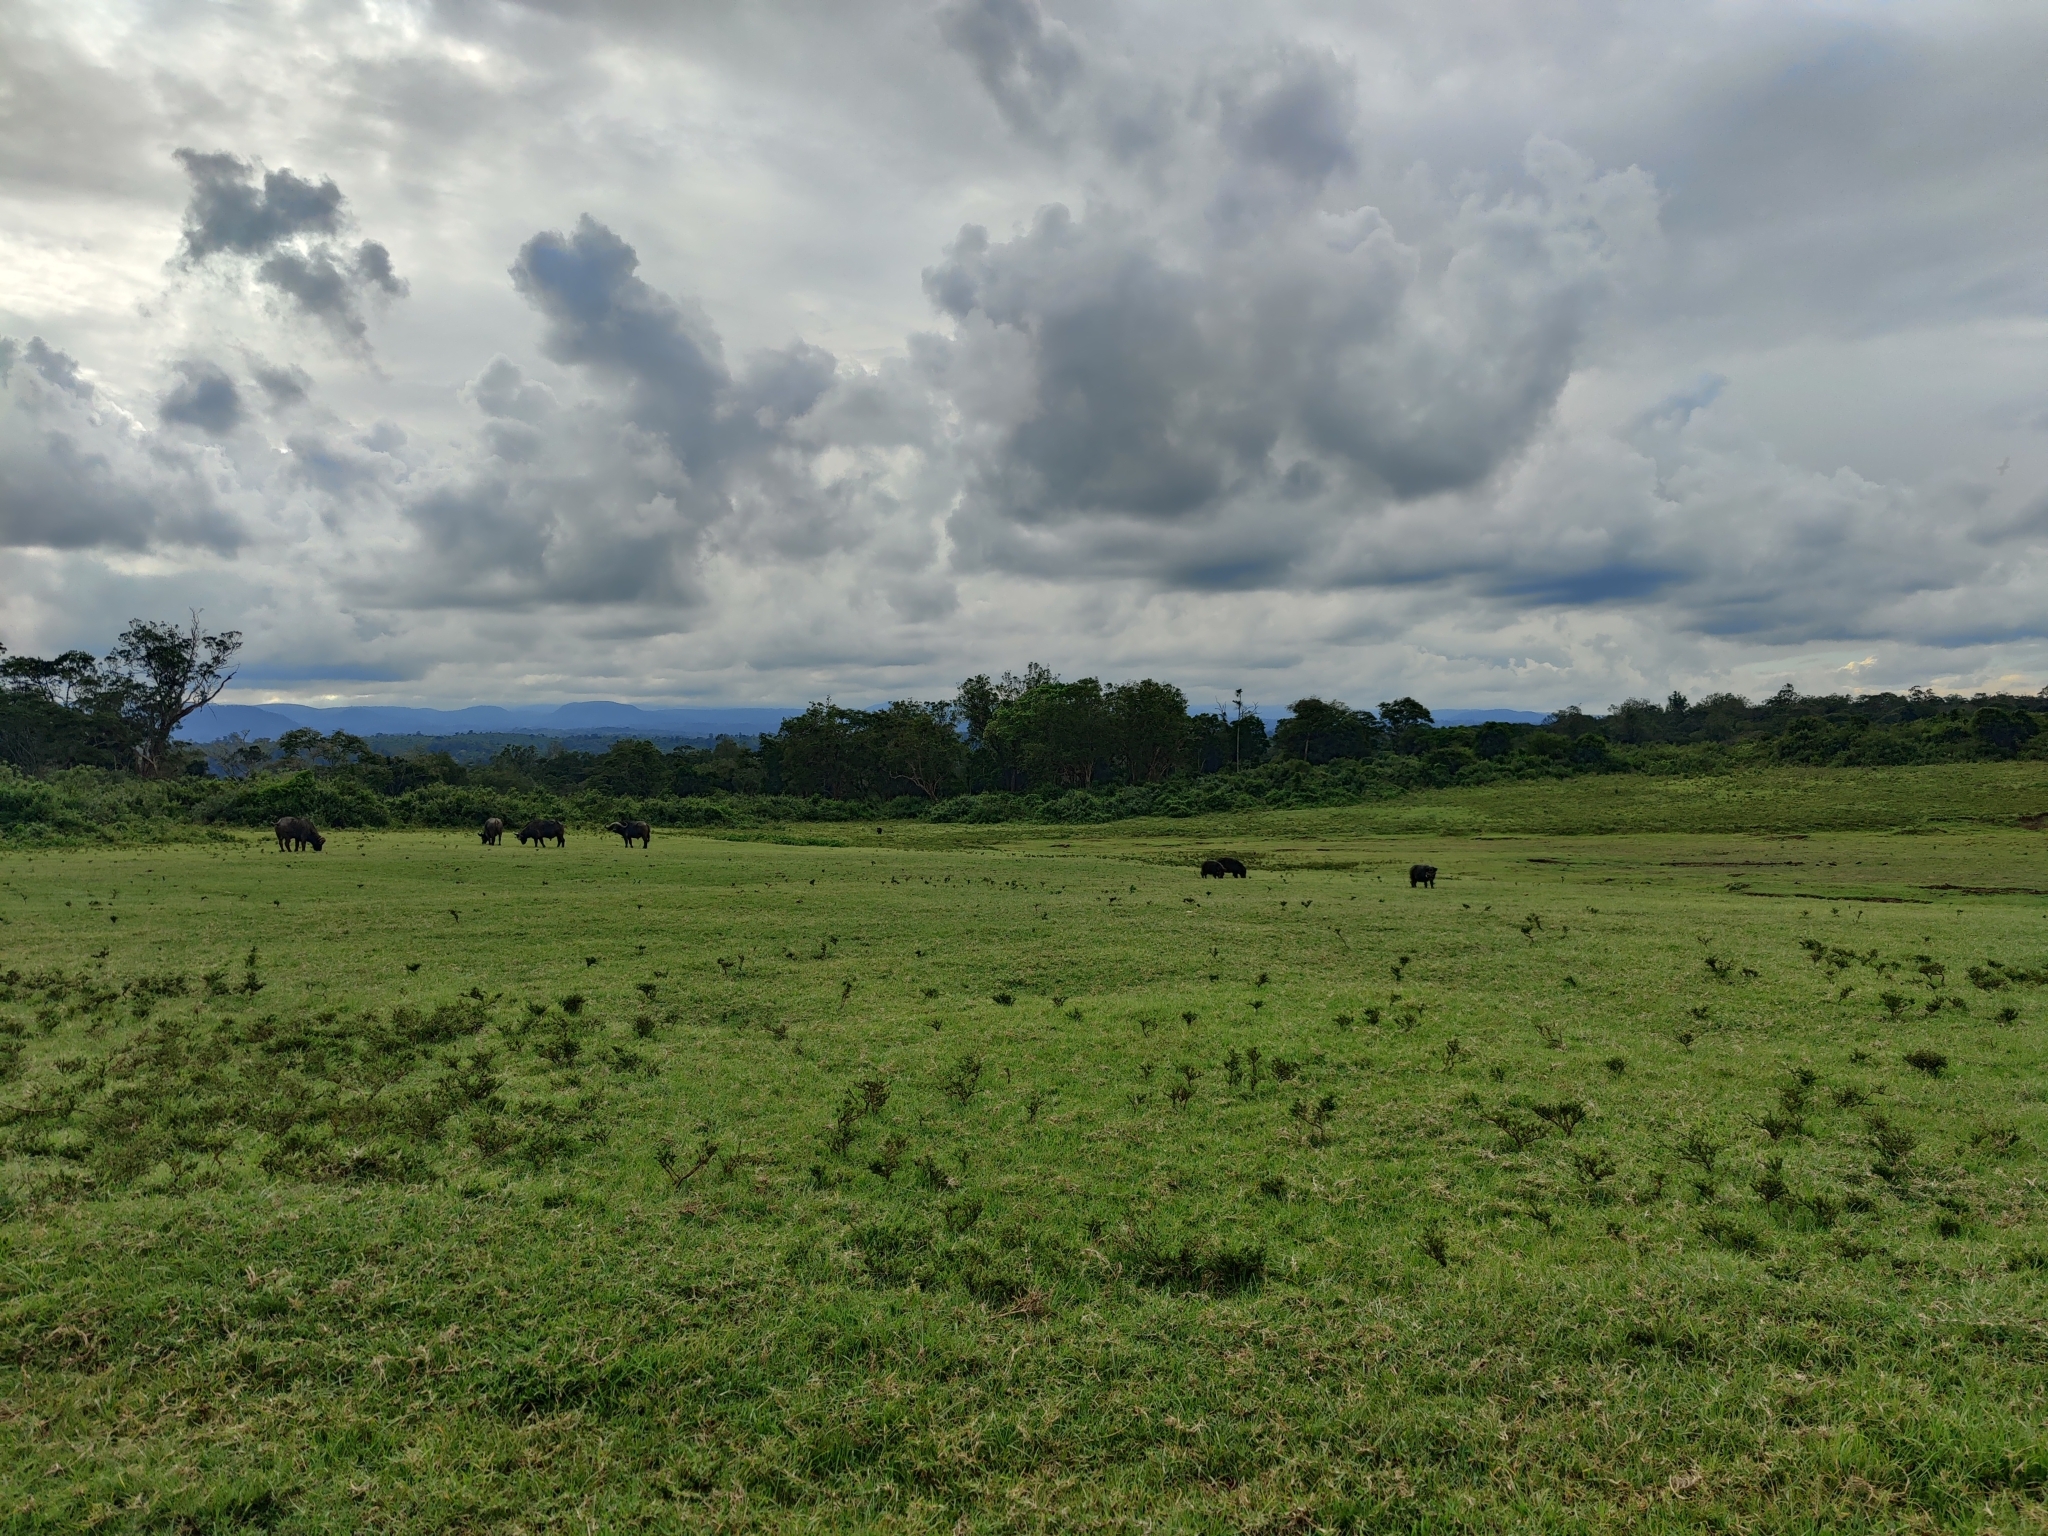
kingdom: Animalia
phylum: Chordata
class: Mammalia
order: Artiodactyla
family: Bovidae
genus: Syncerus
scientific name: Syncerus caffer
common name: African buffalo
